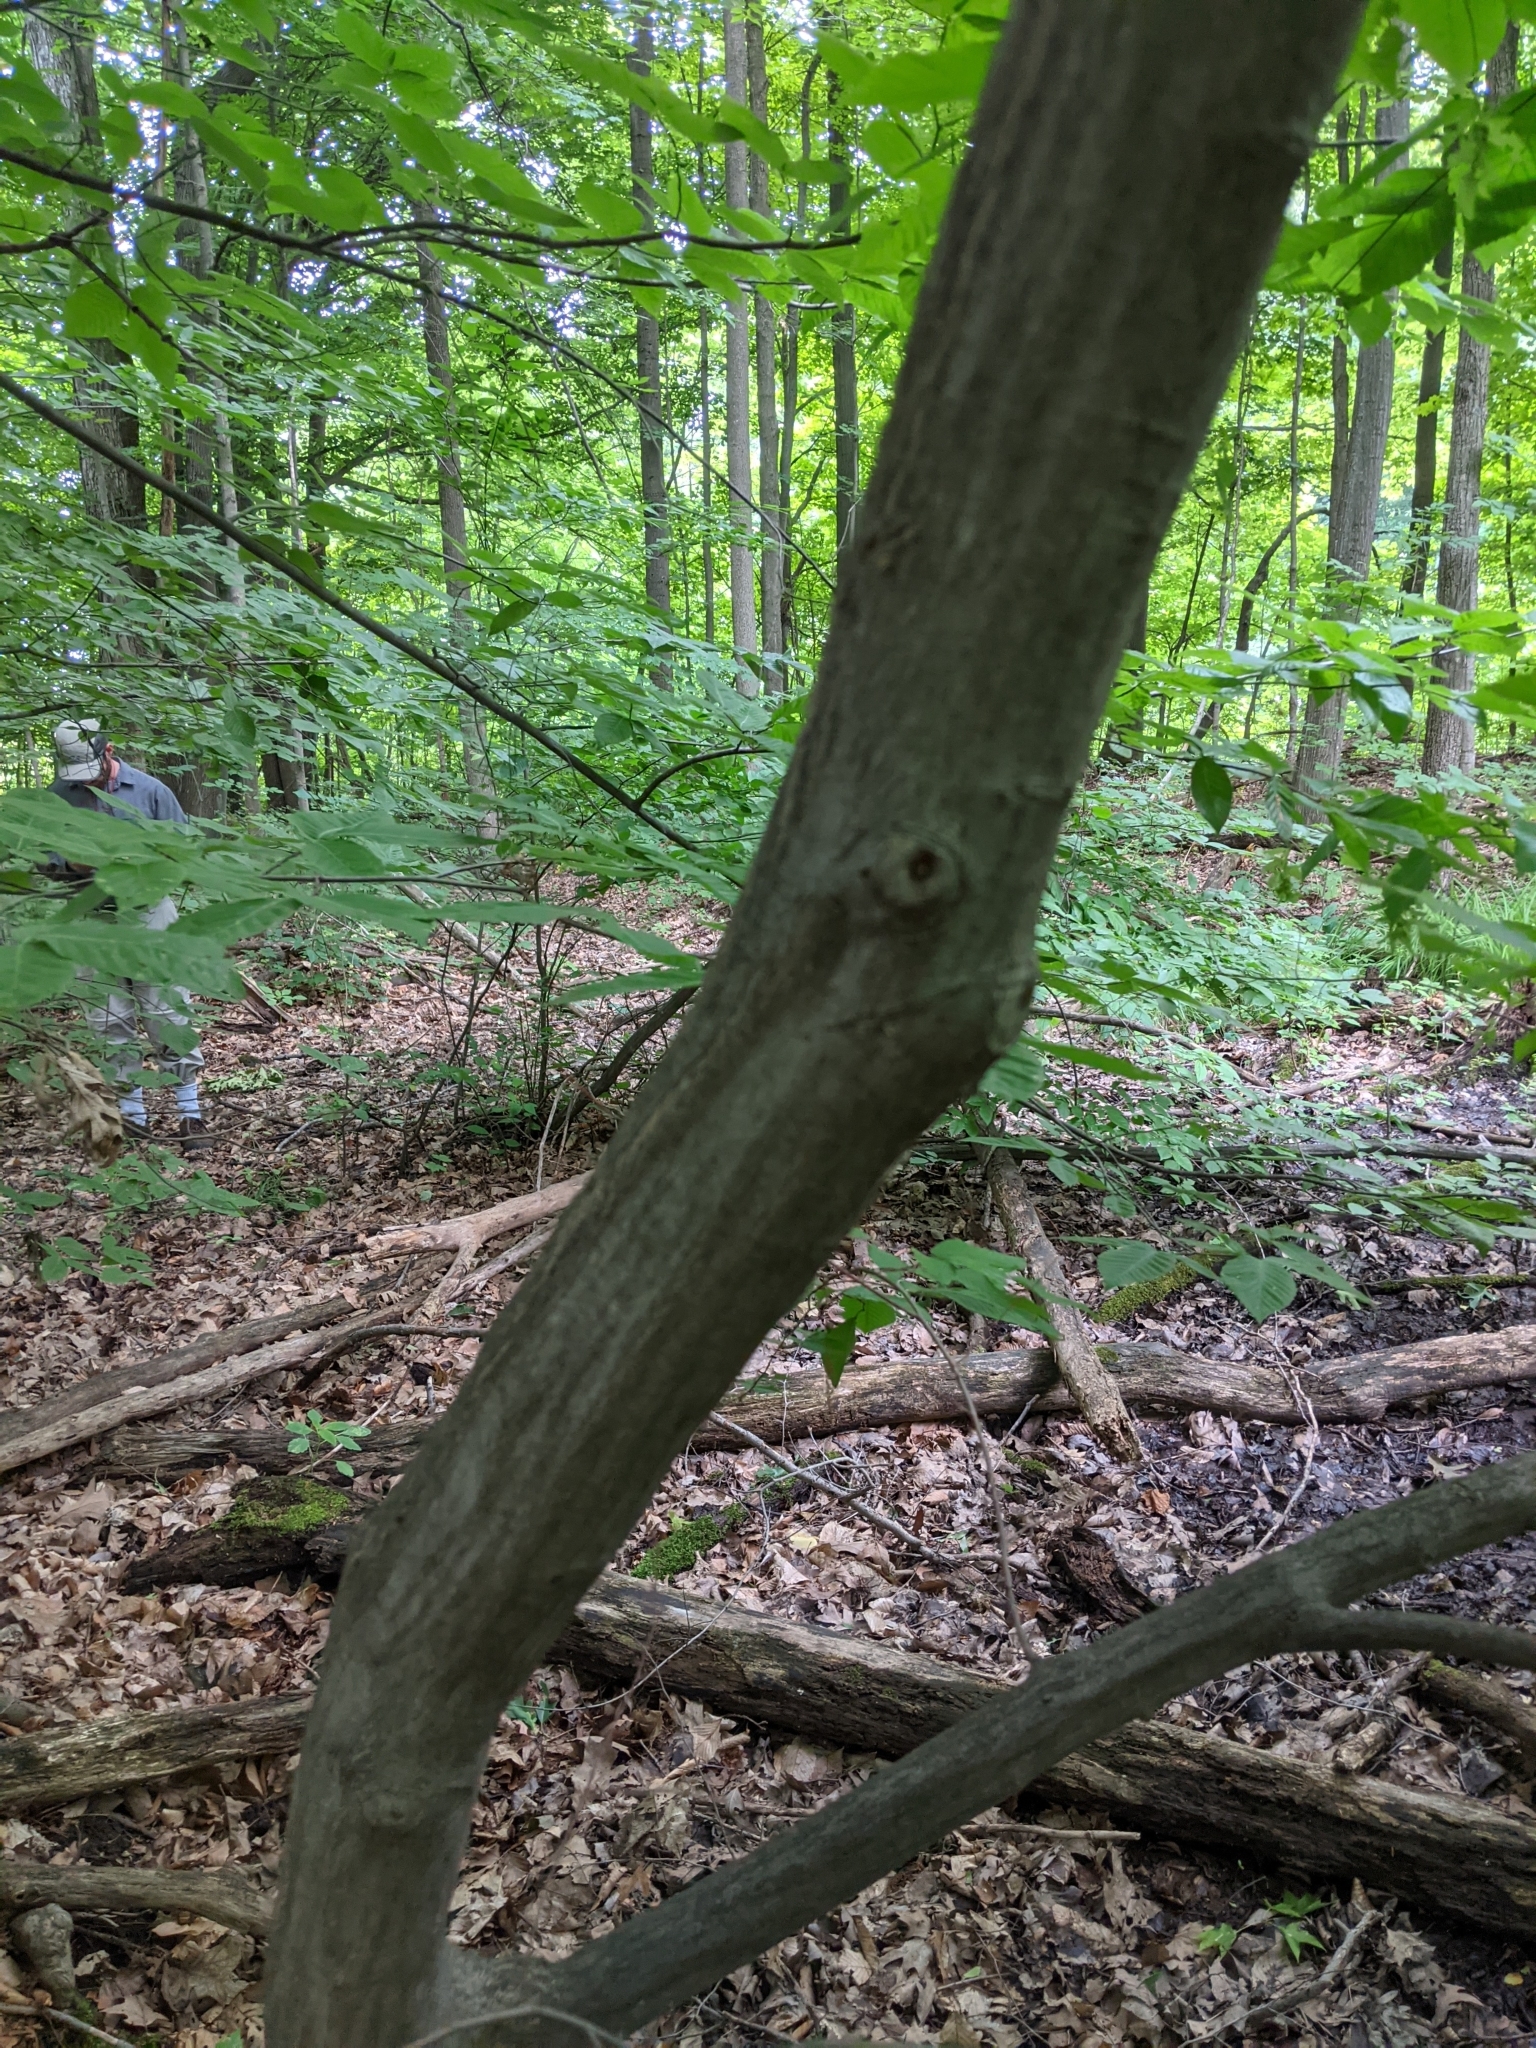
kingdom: Plantae
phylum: Tracheophyta
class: Magnoliopsida
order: Fagales
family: Betulaceae
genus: Carpinus
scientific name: Carpinus caroliniana
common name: American hornbeam
